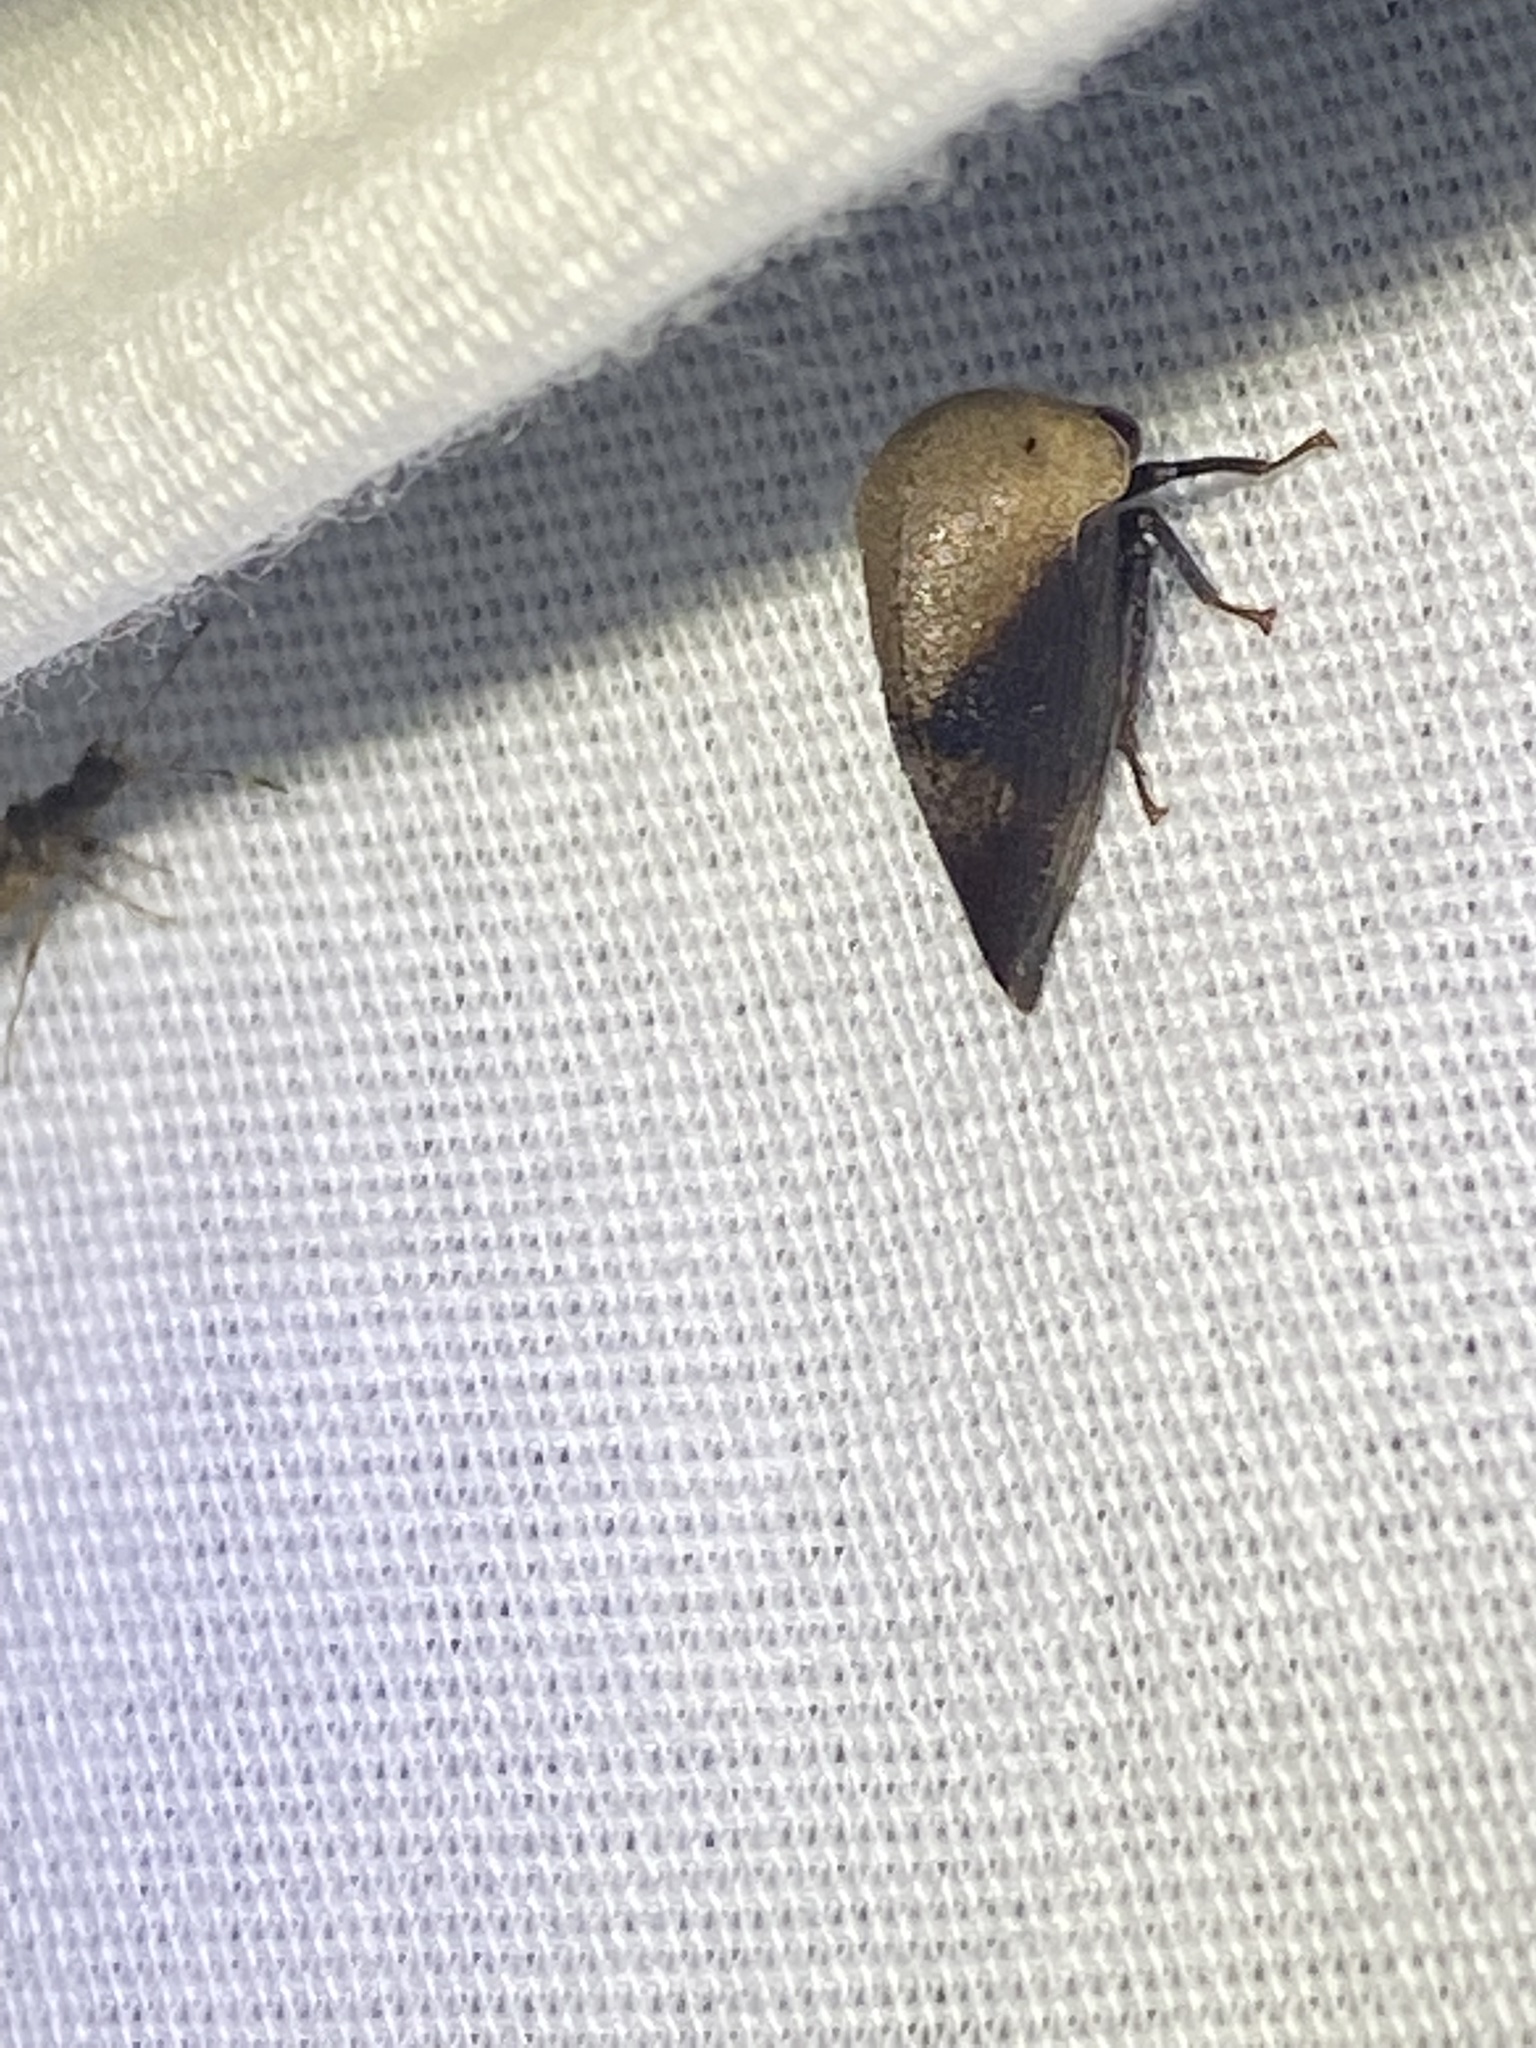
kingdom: Animalia
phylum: Arthropoda
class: Insecta
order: Hemiptera
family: Membracidae
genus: Carynota
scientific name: Carynota mera
